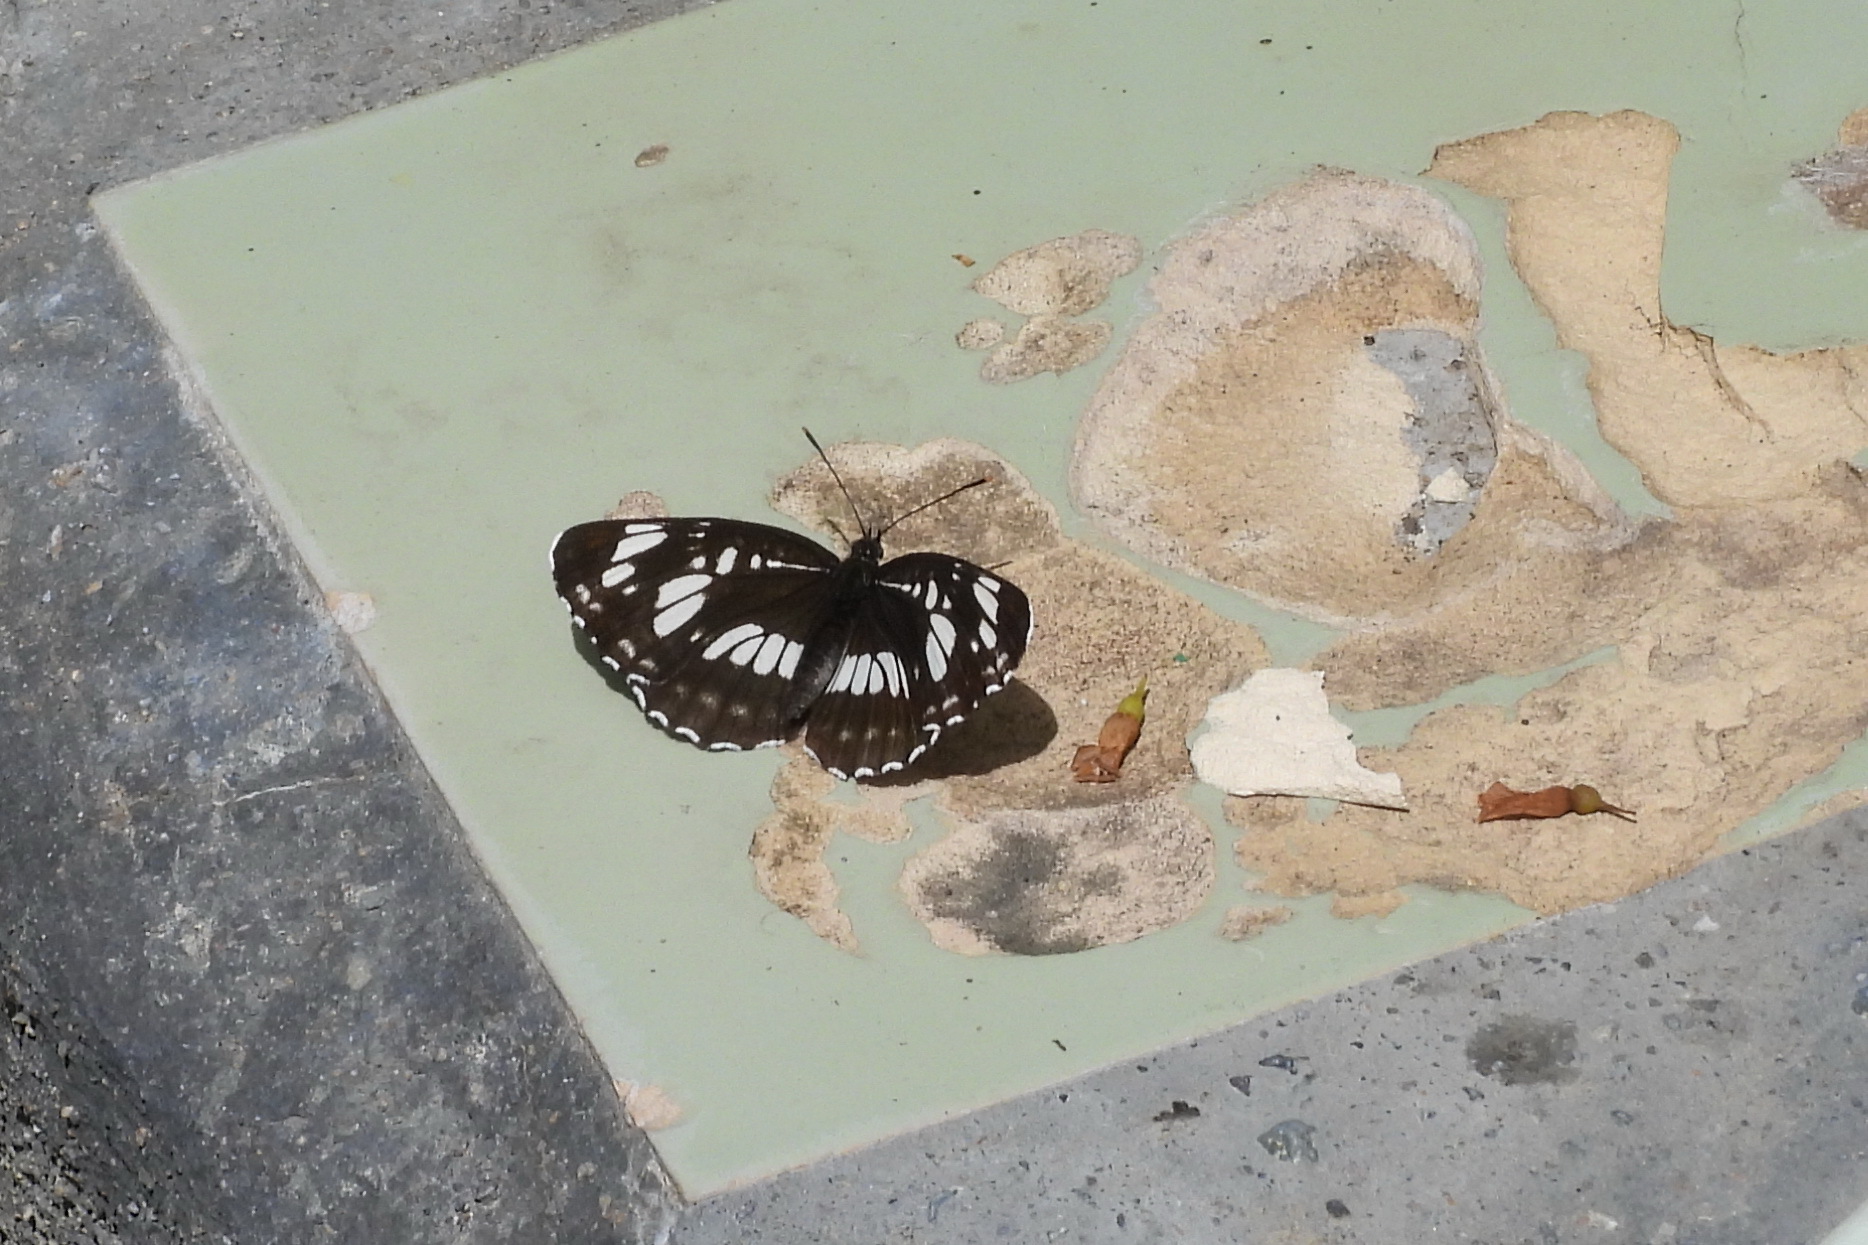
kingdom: Animalia
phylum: Arthropoda
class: Insecta
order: Lepidoptera
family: Nymphalidae
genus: Neptis
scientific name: Neptis rivularis
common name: Hungarian glider
